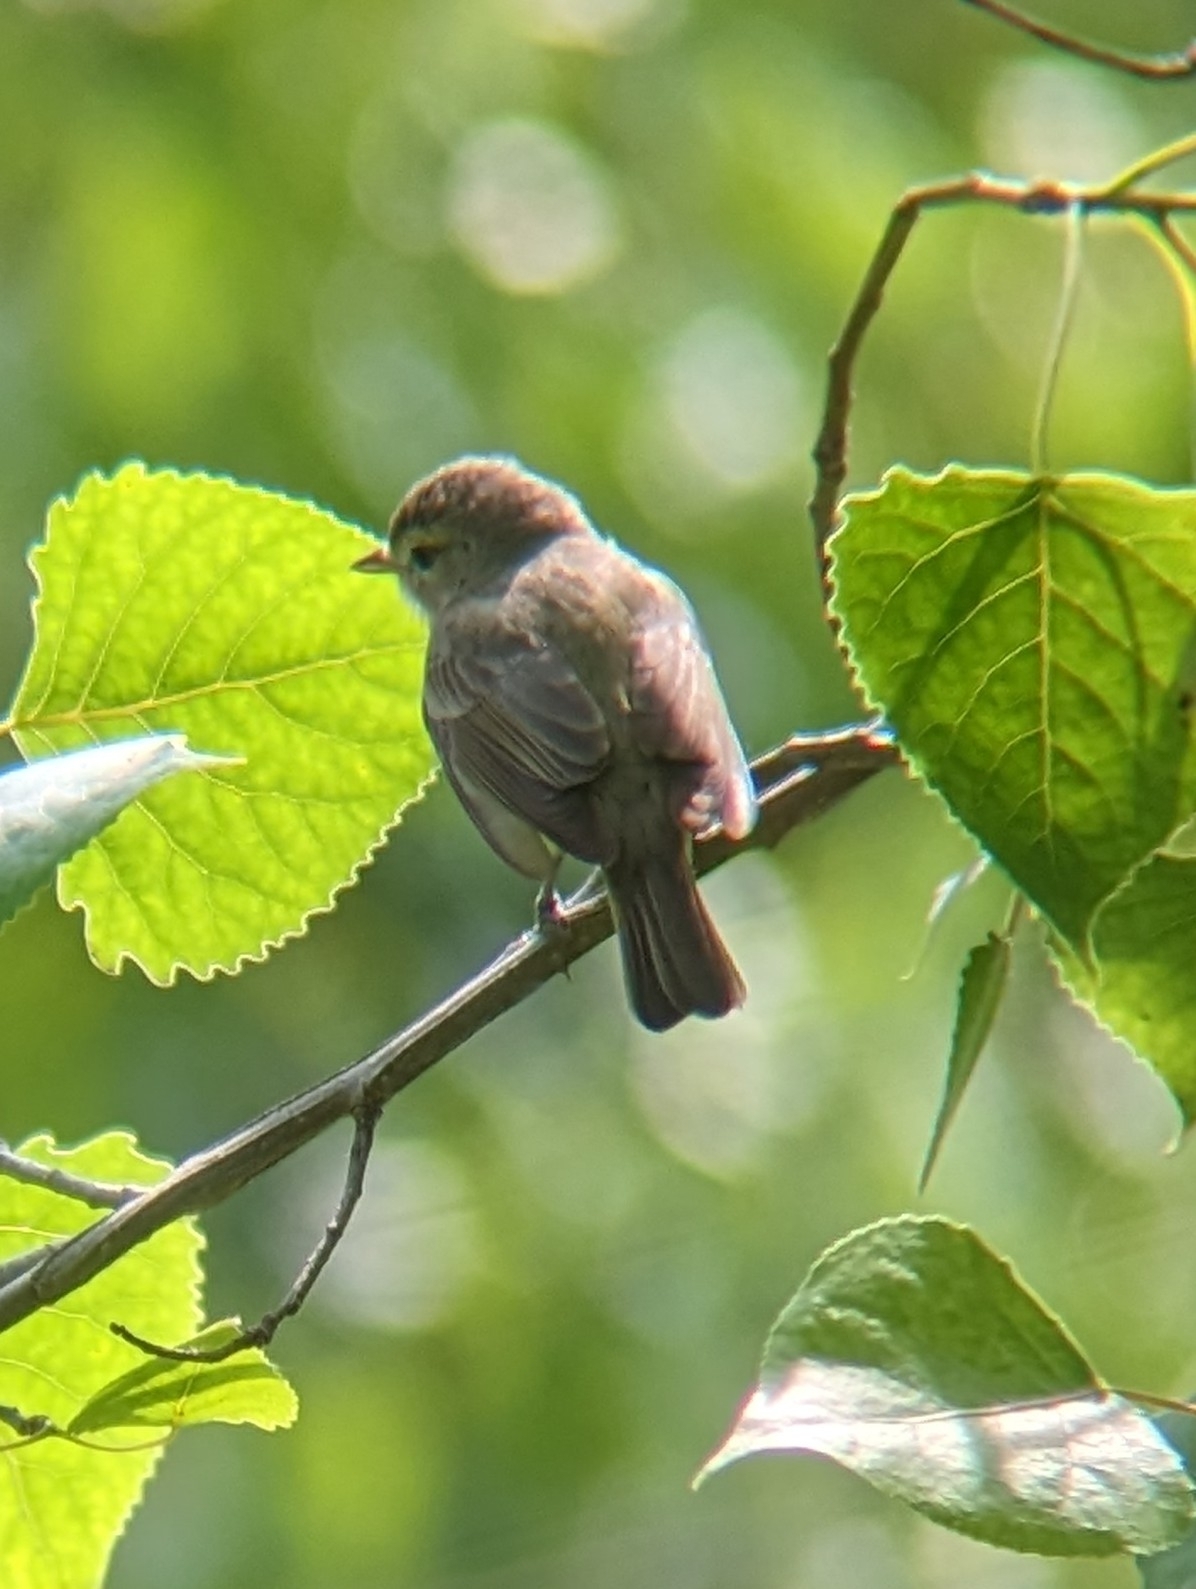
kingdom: Animalia
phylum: Chordata
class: Aves
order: Passeriformes
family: Vireonidae
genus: Vireo
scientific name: Vireo gilvus
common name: Warbling vireo
